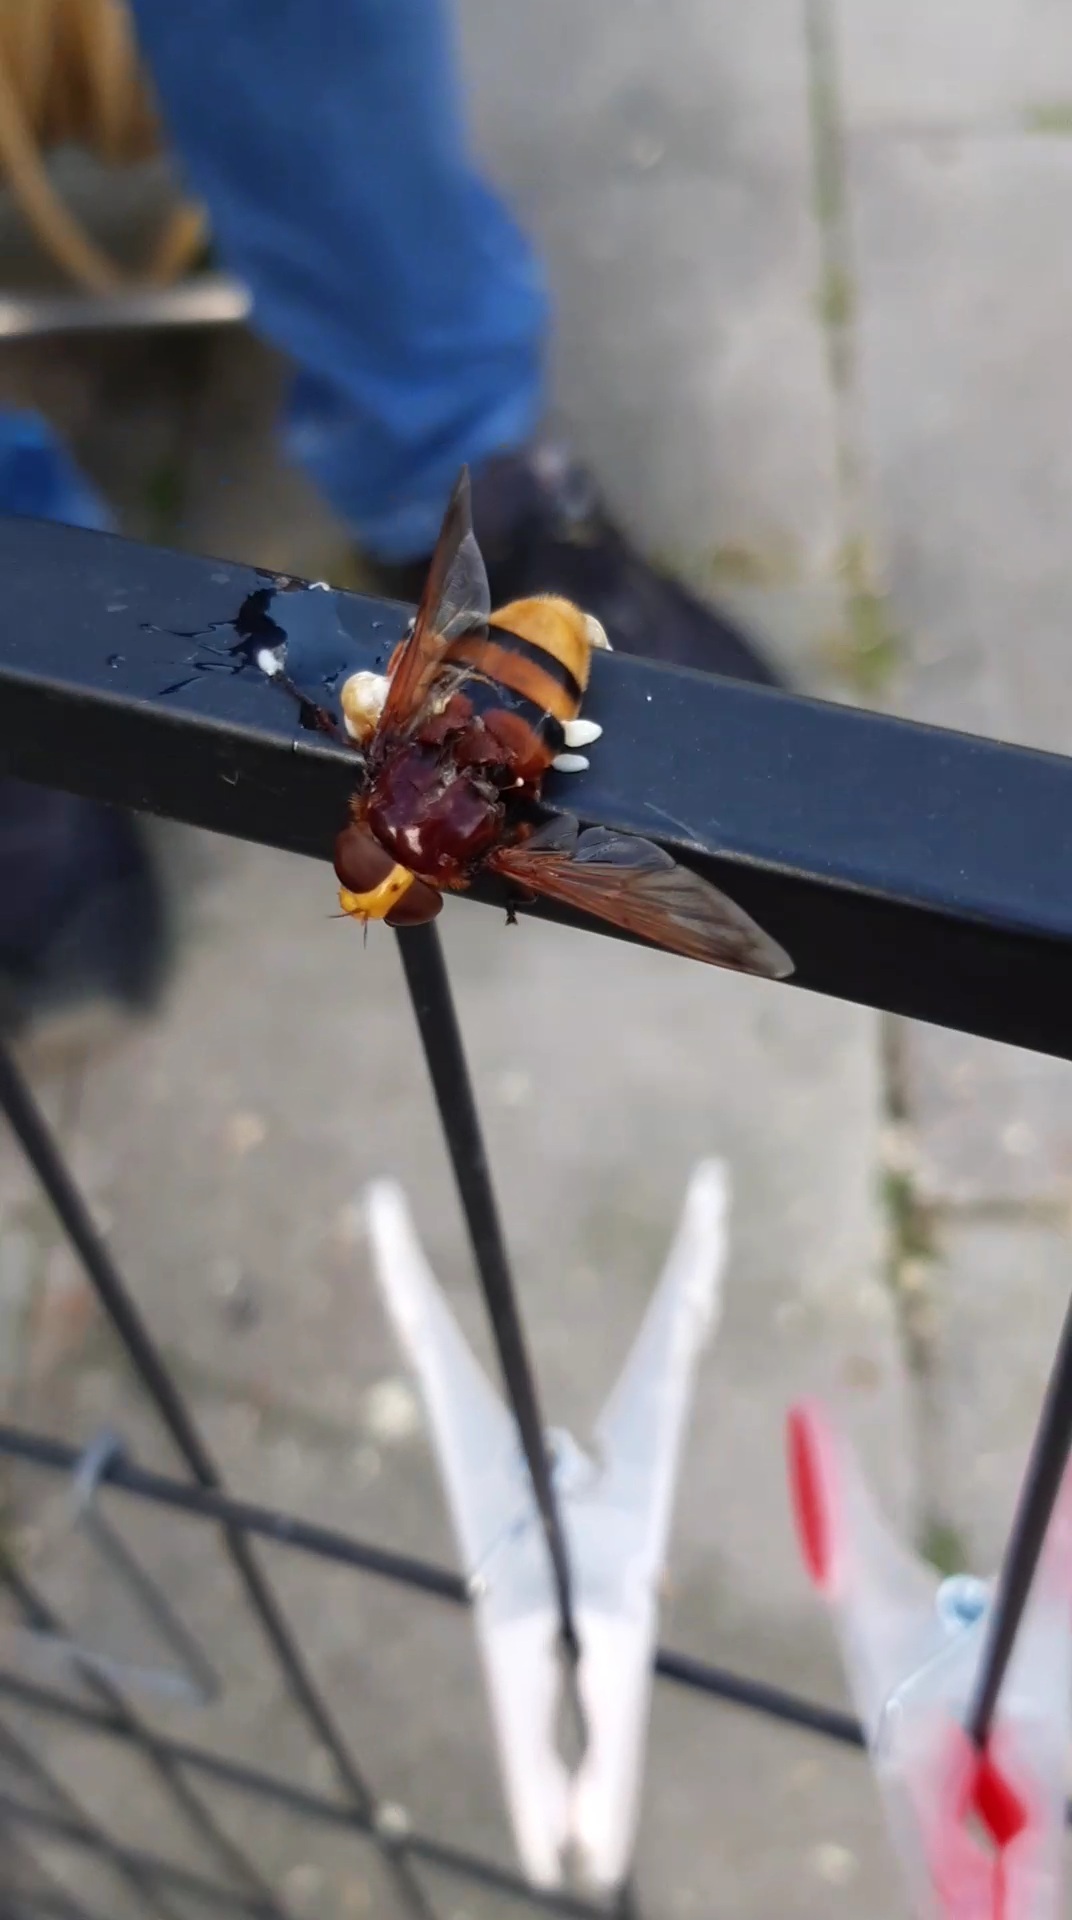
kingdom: Animalia
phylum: Arthropoda
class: Insecta
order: Diptera
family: Syrphidae
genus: Volucella
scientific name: Volucella zonaria
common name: Hornet hoverfly
